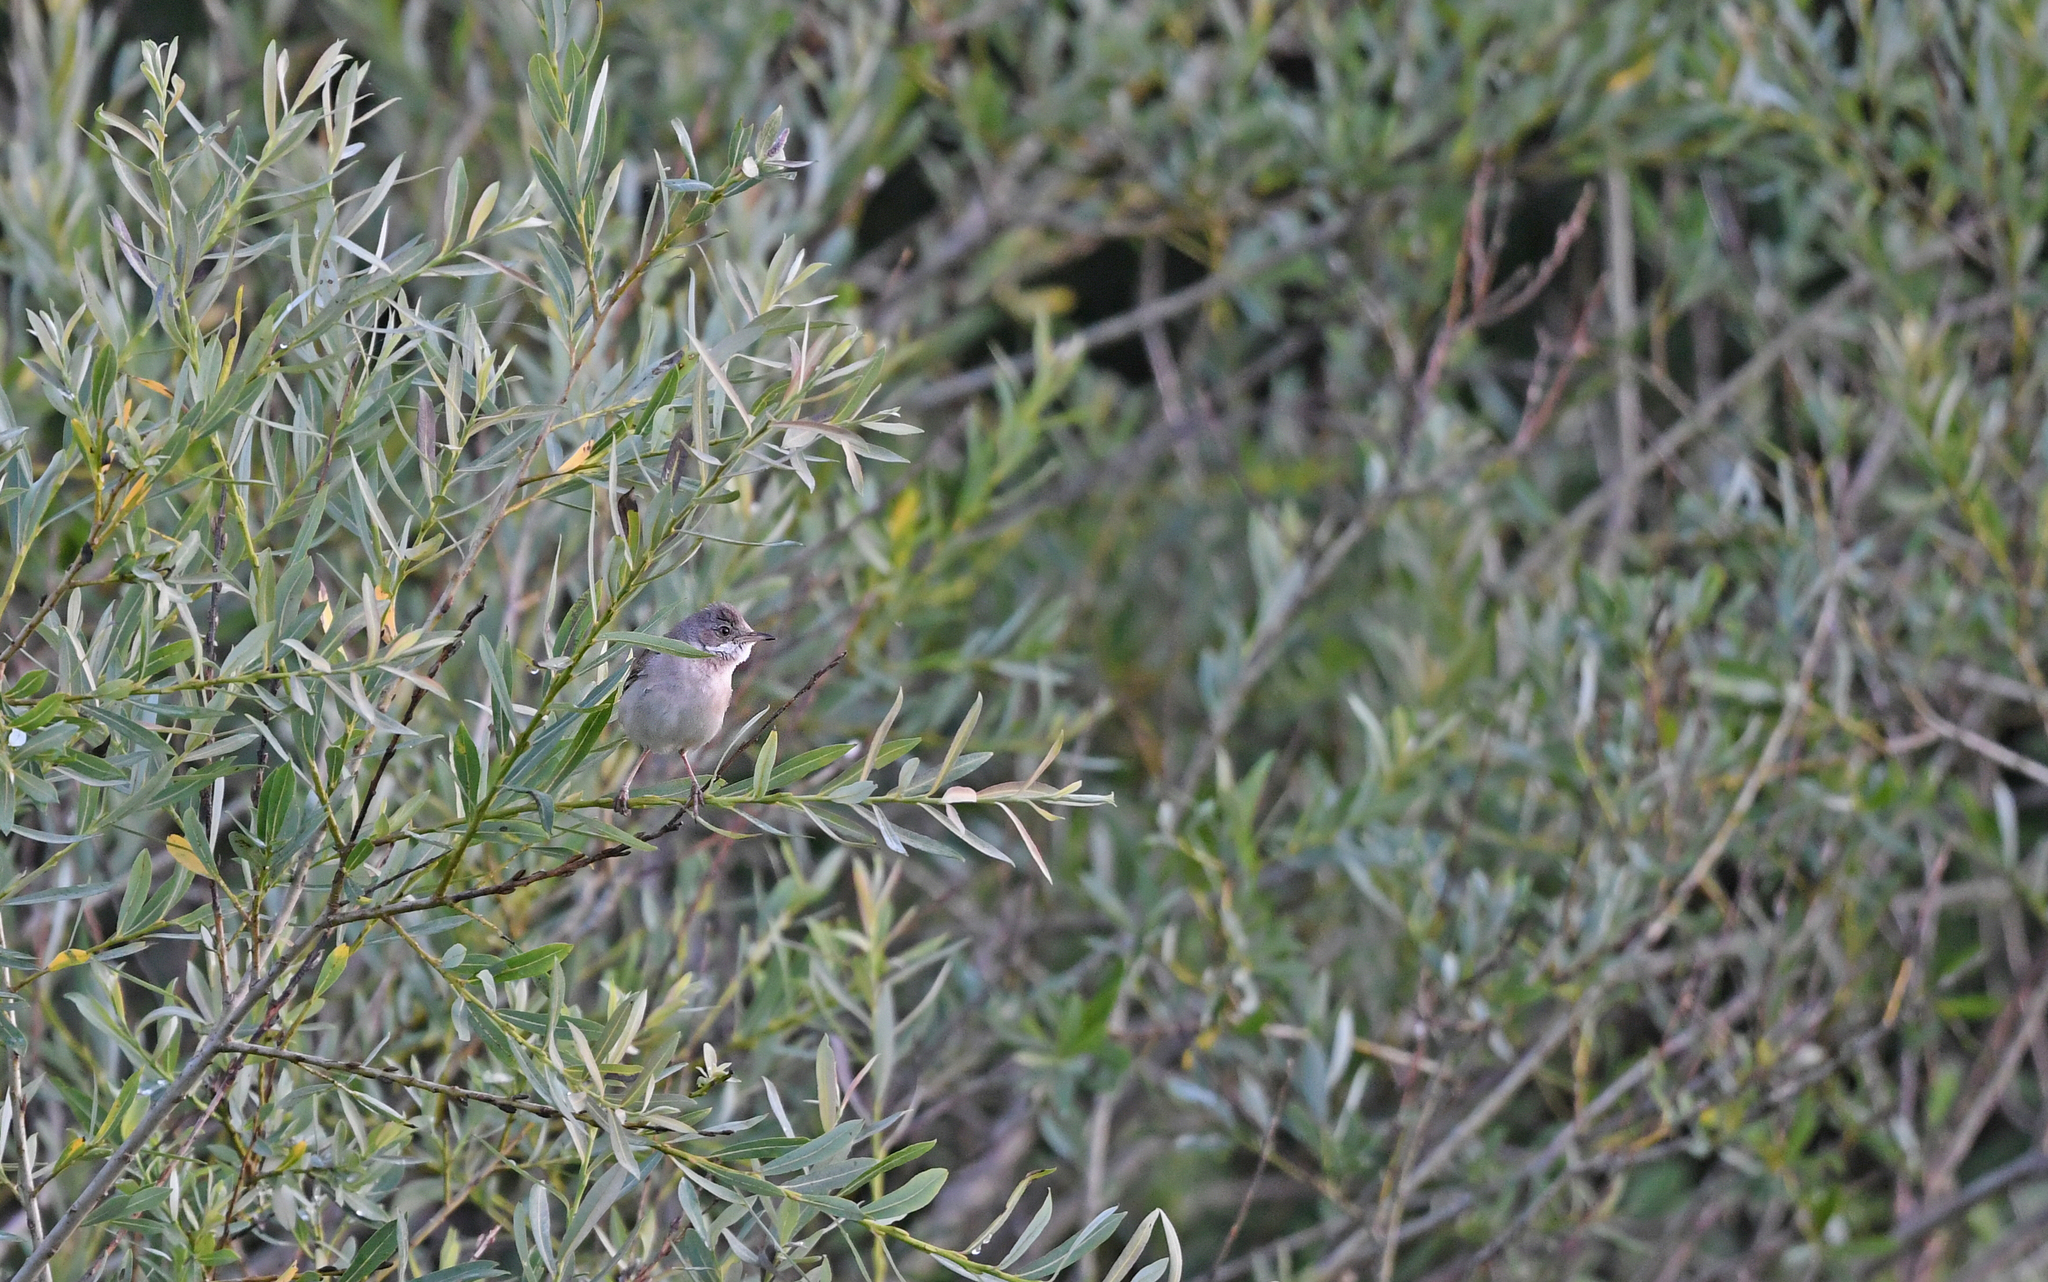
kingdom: Animalia
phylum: Chordata
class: Aves
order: Passeriformes
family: Sylviidae
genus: Sylvia
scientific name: Sylvia communis
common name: Common whitethroat
